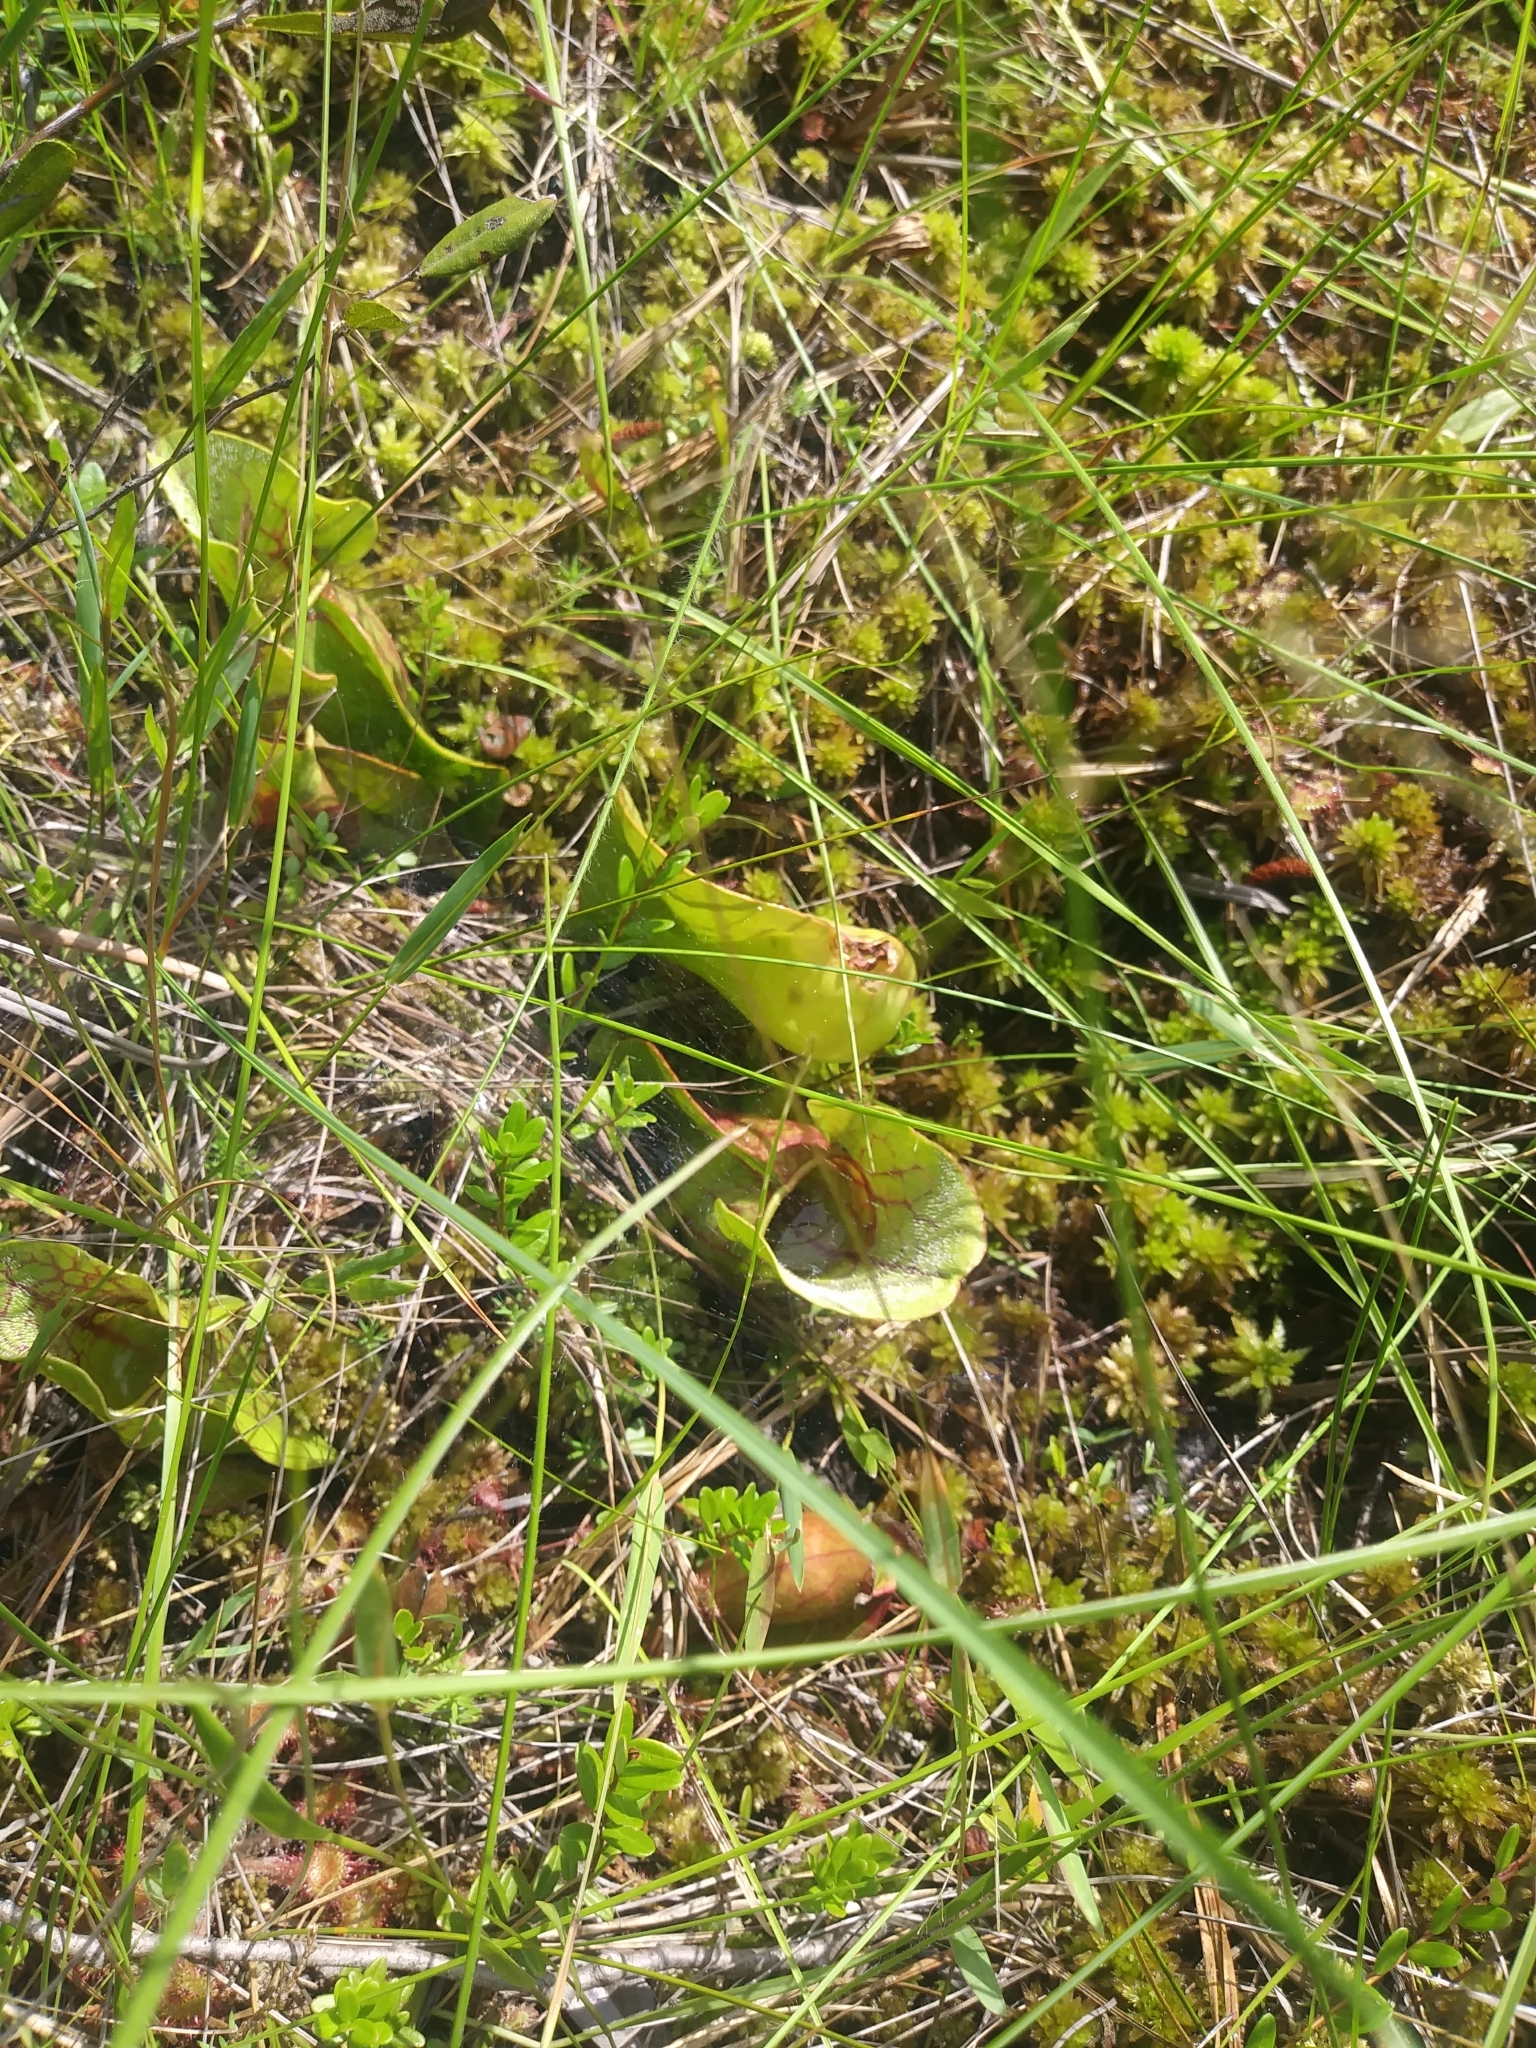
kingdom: Plantae
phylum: Tracheophyta
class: Magnoliopsida
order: Ericales
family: Sarraceniaceae
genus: Sarracenia
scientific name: Sarracenia purpurea
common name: Pitcherplant
